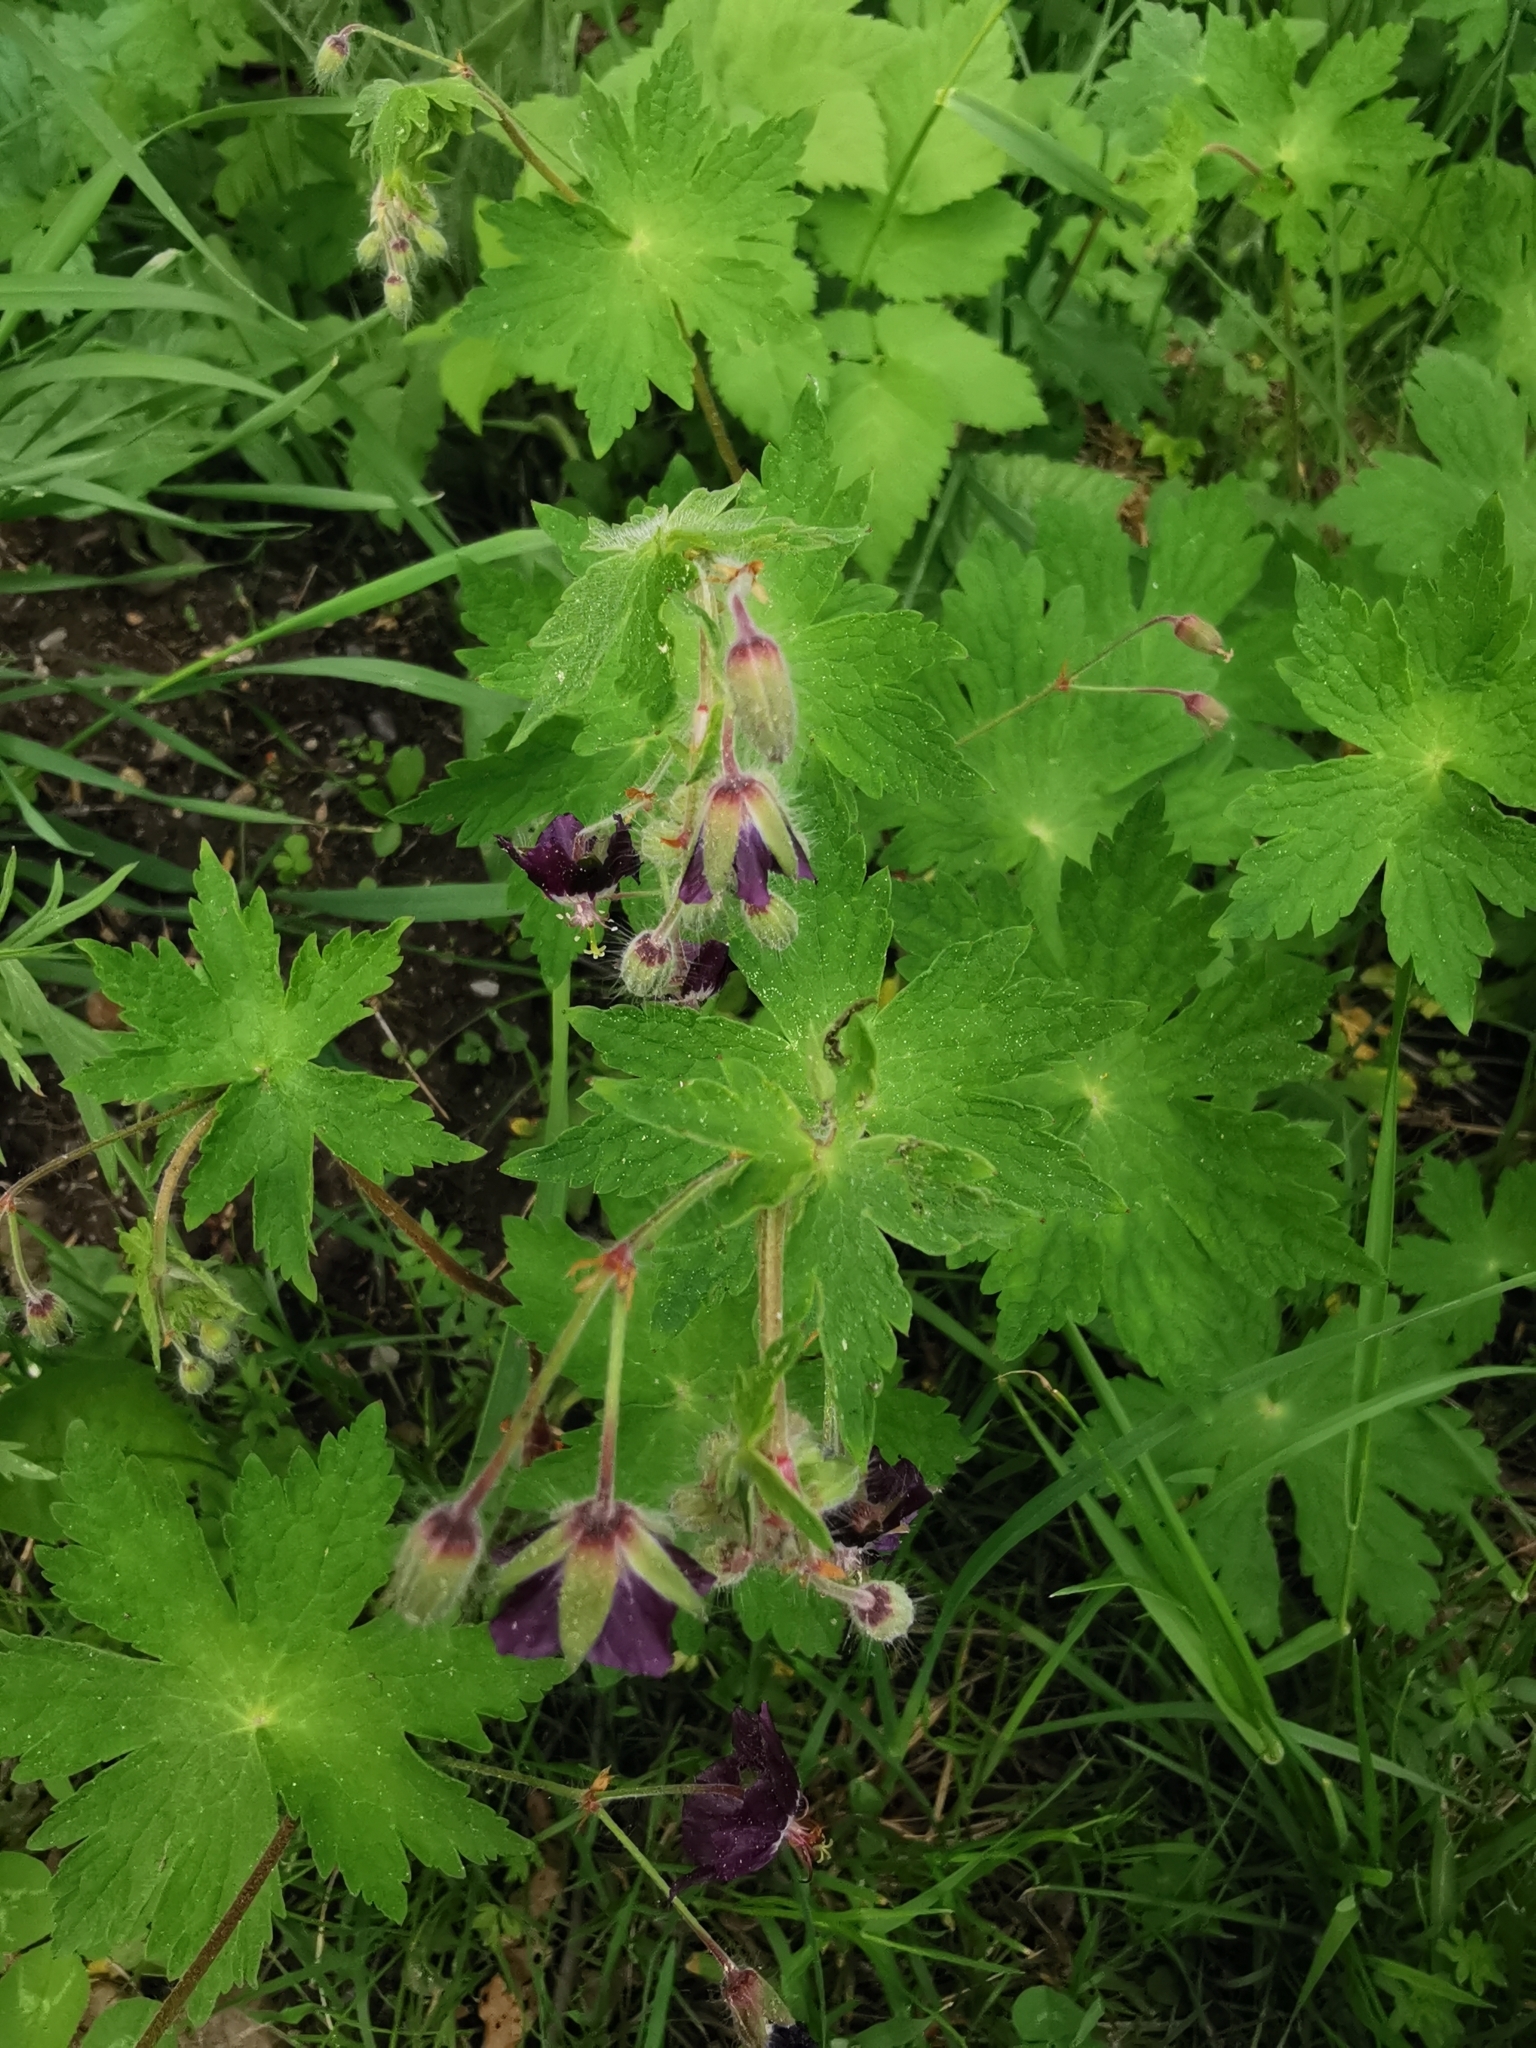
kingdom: Plantae
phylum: Tracheophyta
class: Magnoliopsida
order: Geraniales
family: Geraniaceae
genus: Geranium
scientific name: Geranium phaeum
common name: Dusky crane's-bill
